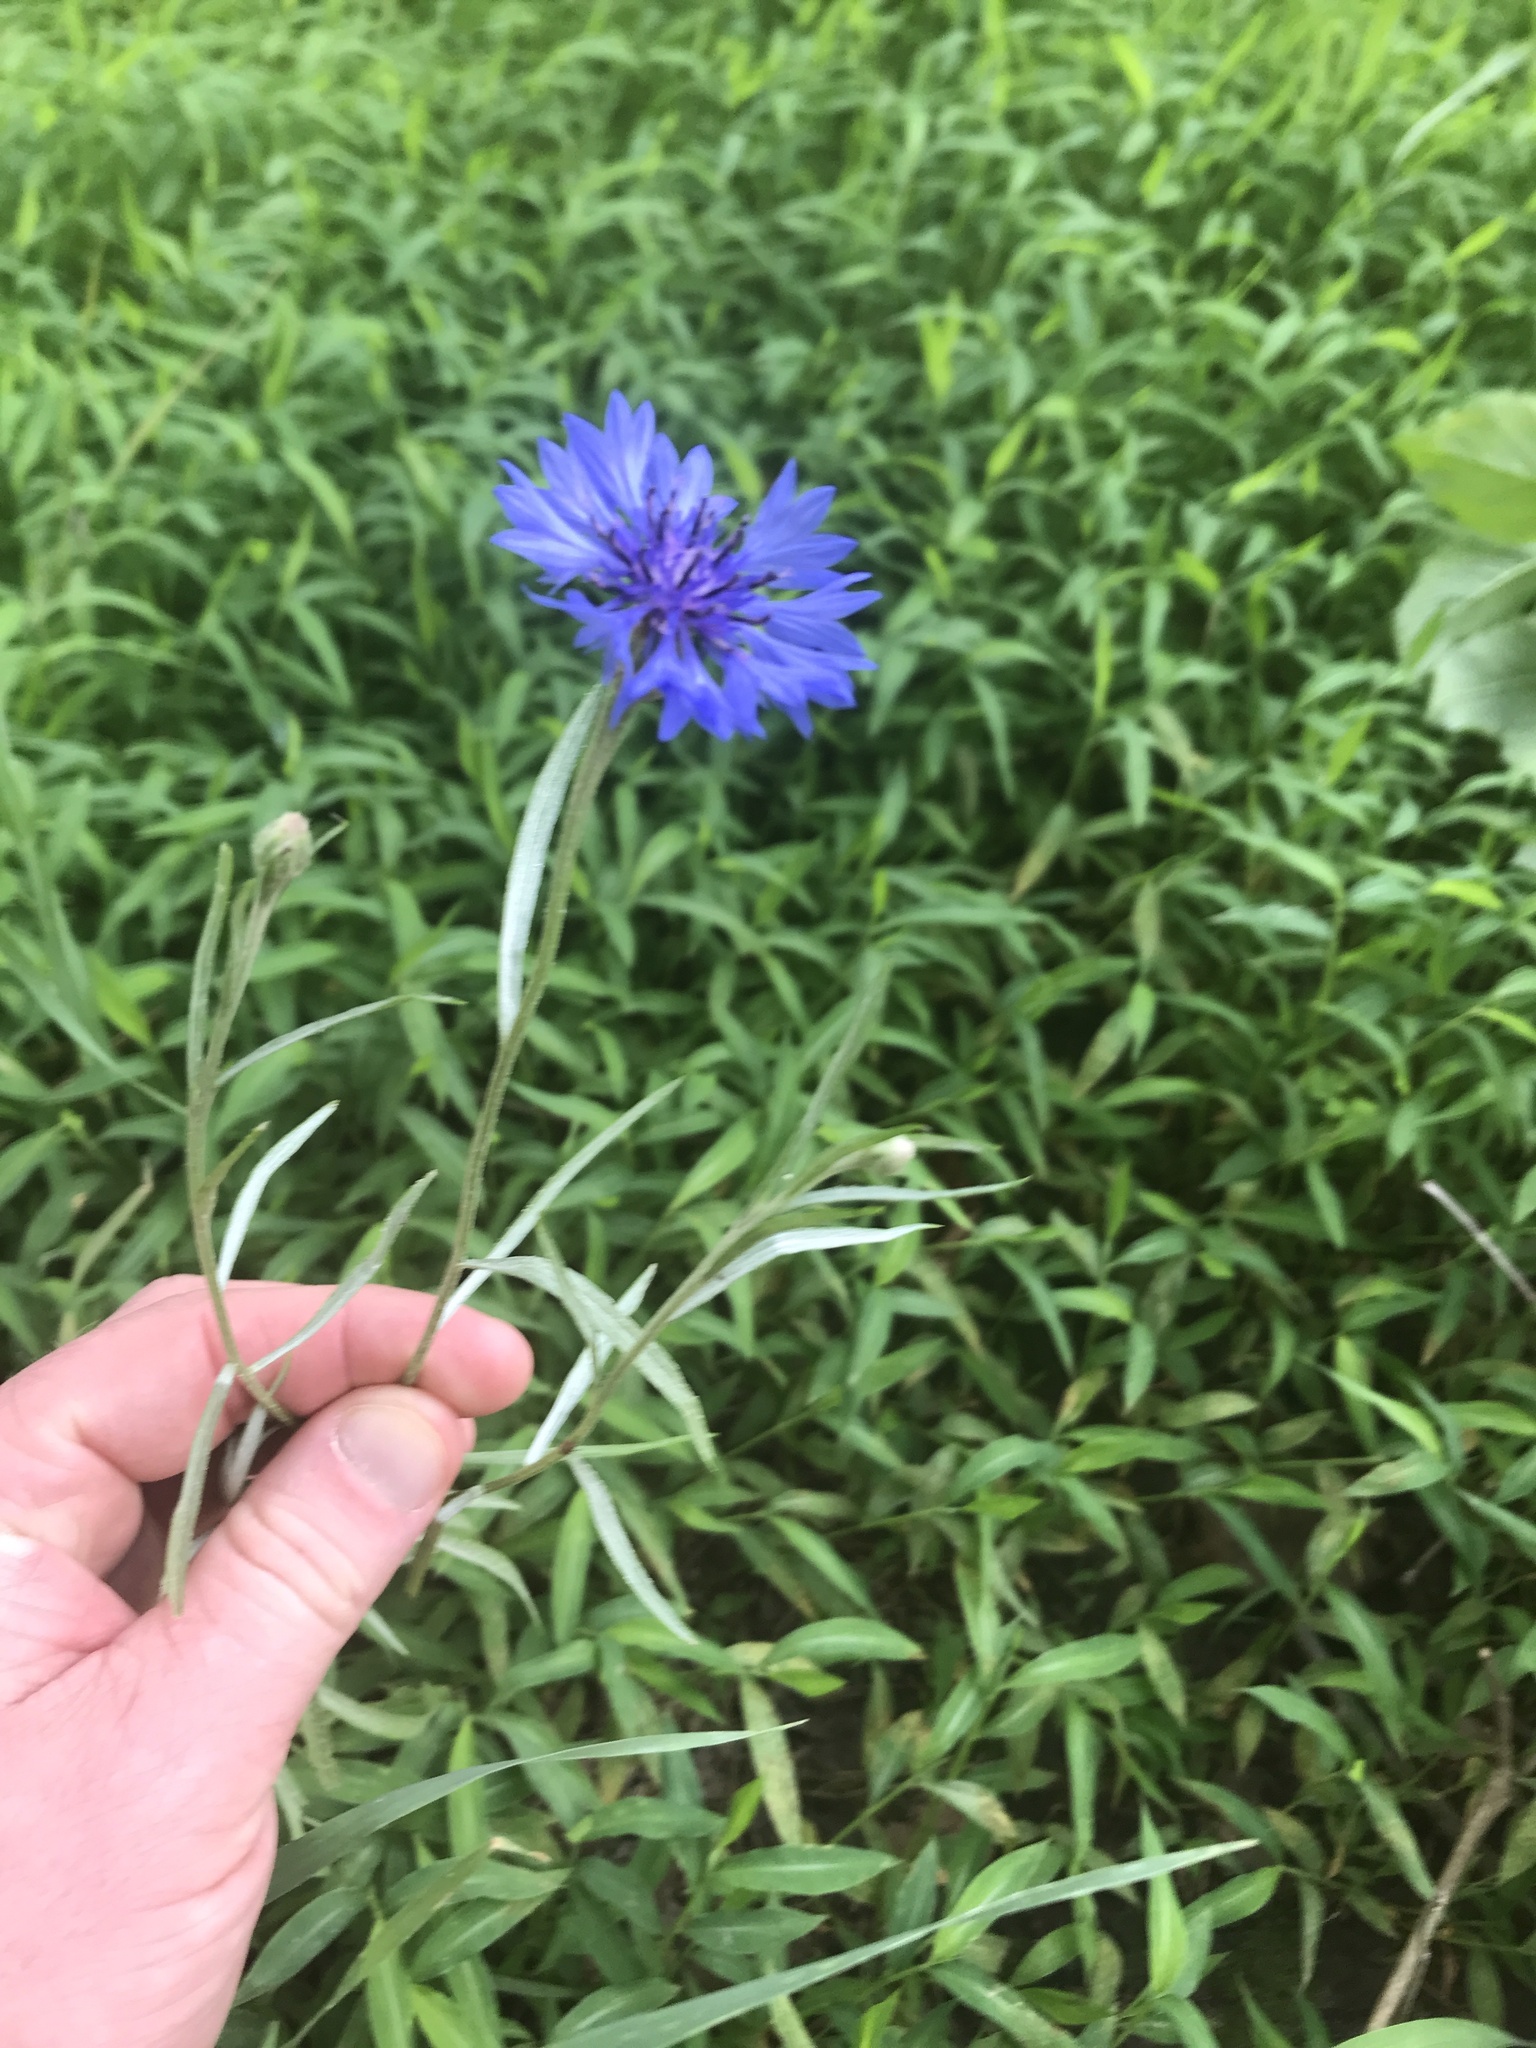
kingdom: Plantae
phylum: Tracheophyta
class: Magnoliopsida
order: Asterales
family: Asteraceae
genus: Centaurea
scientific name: Centaurea cyanus
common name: Cornflower
